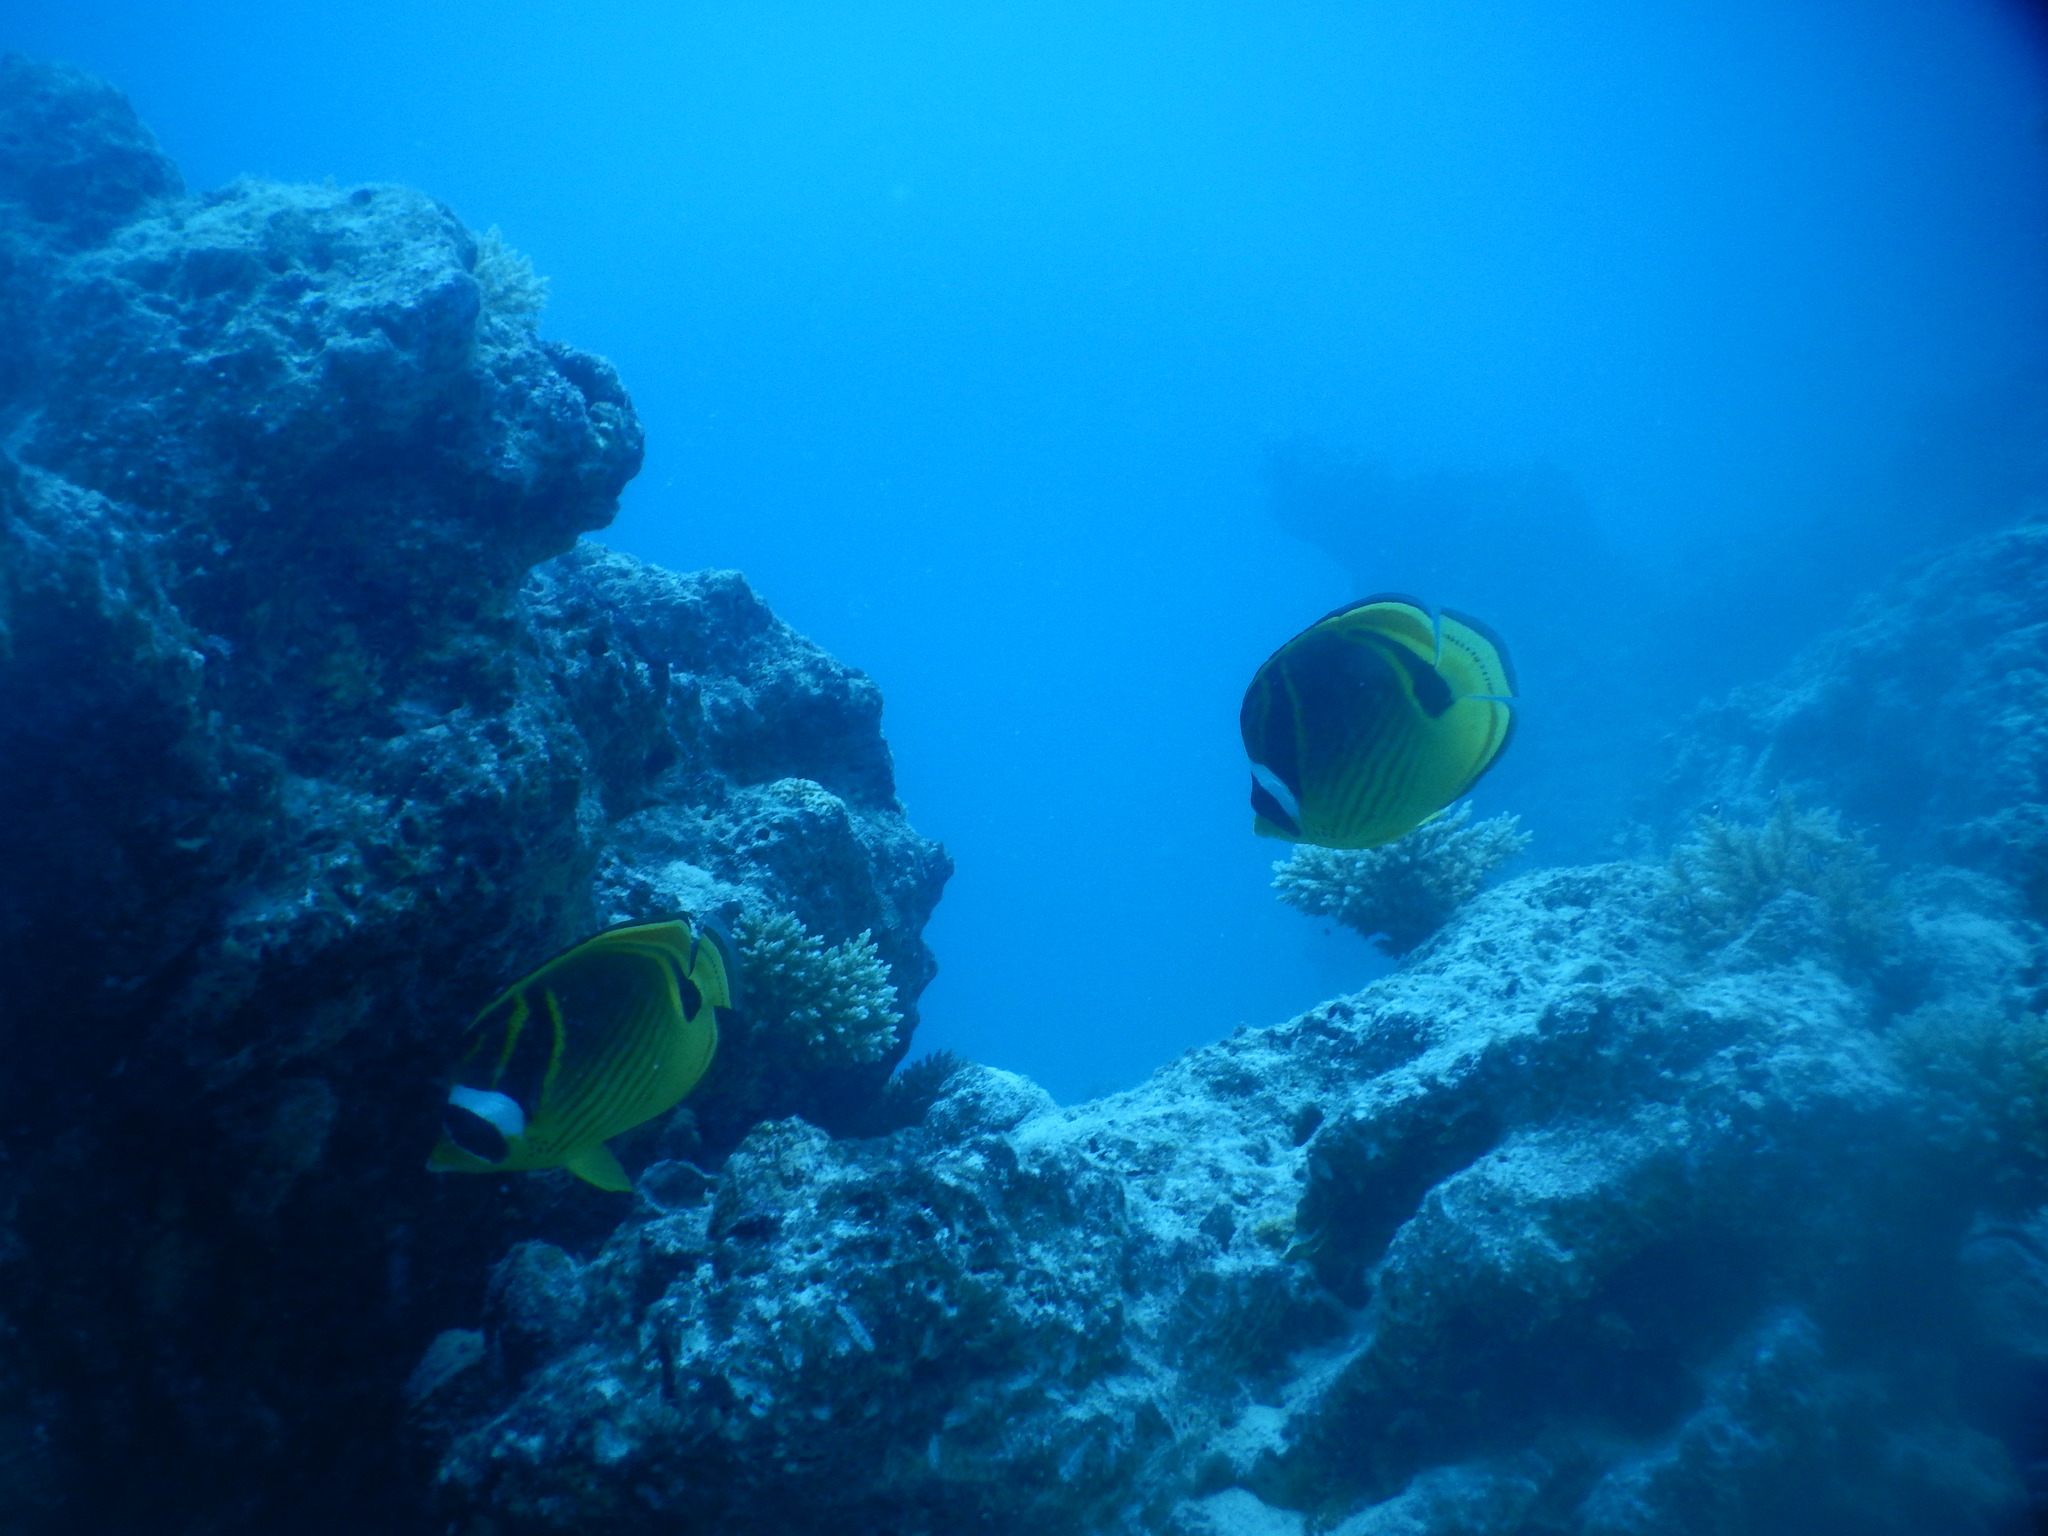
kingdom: Animalia
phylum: Chordata
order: Perciformes
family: Chaetodontidae
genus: Chaetodon
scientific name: Chaetodon lunula
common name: Raccoon butterflyfish
